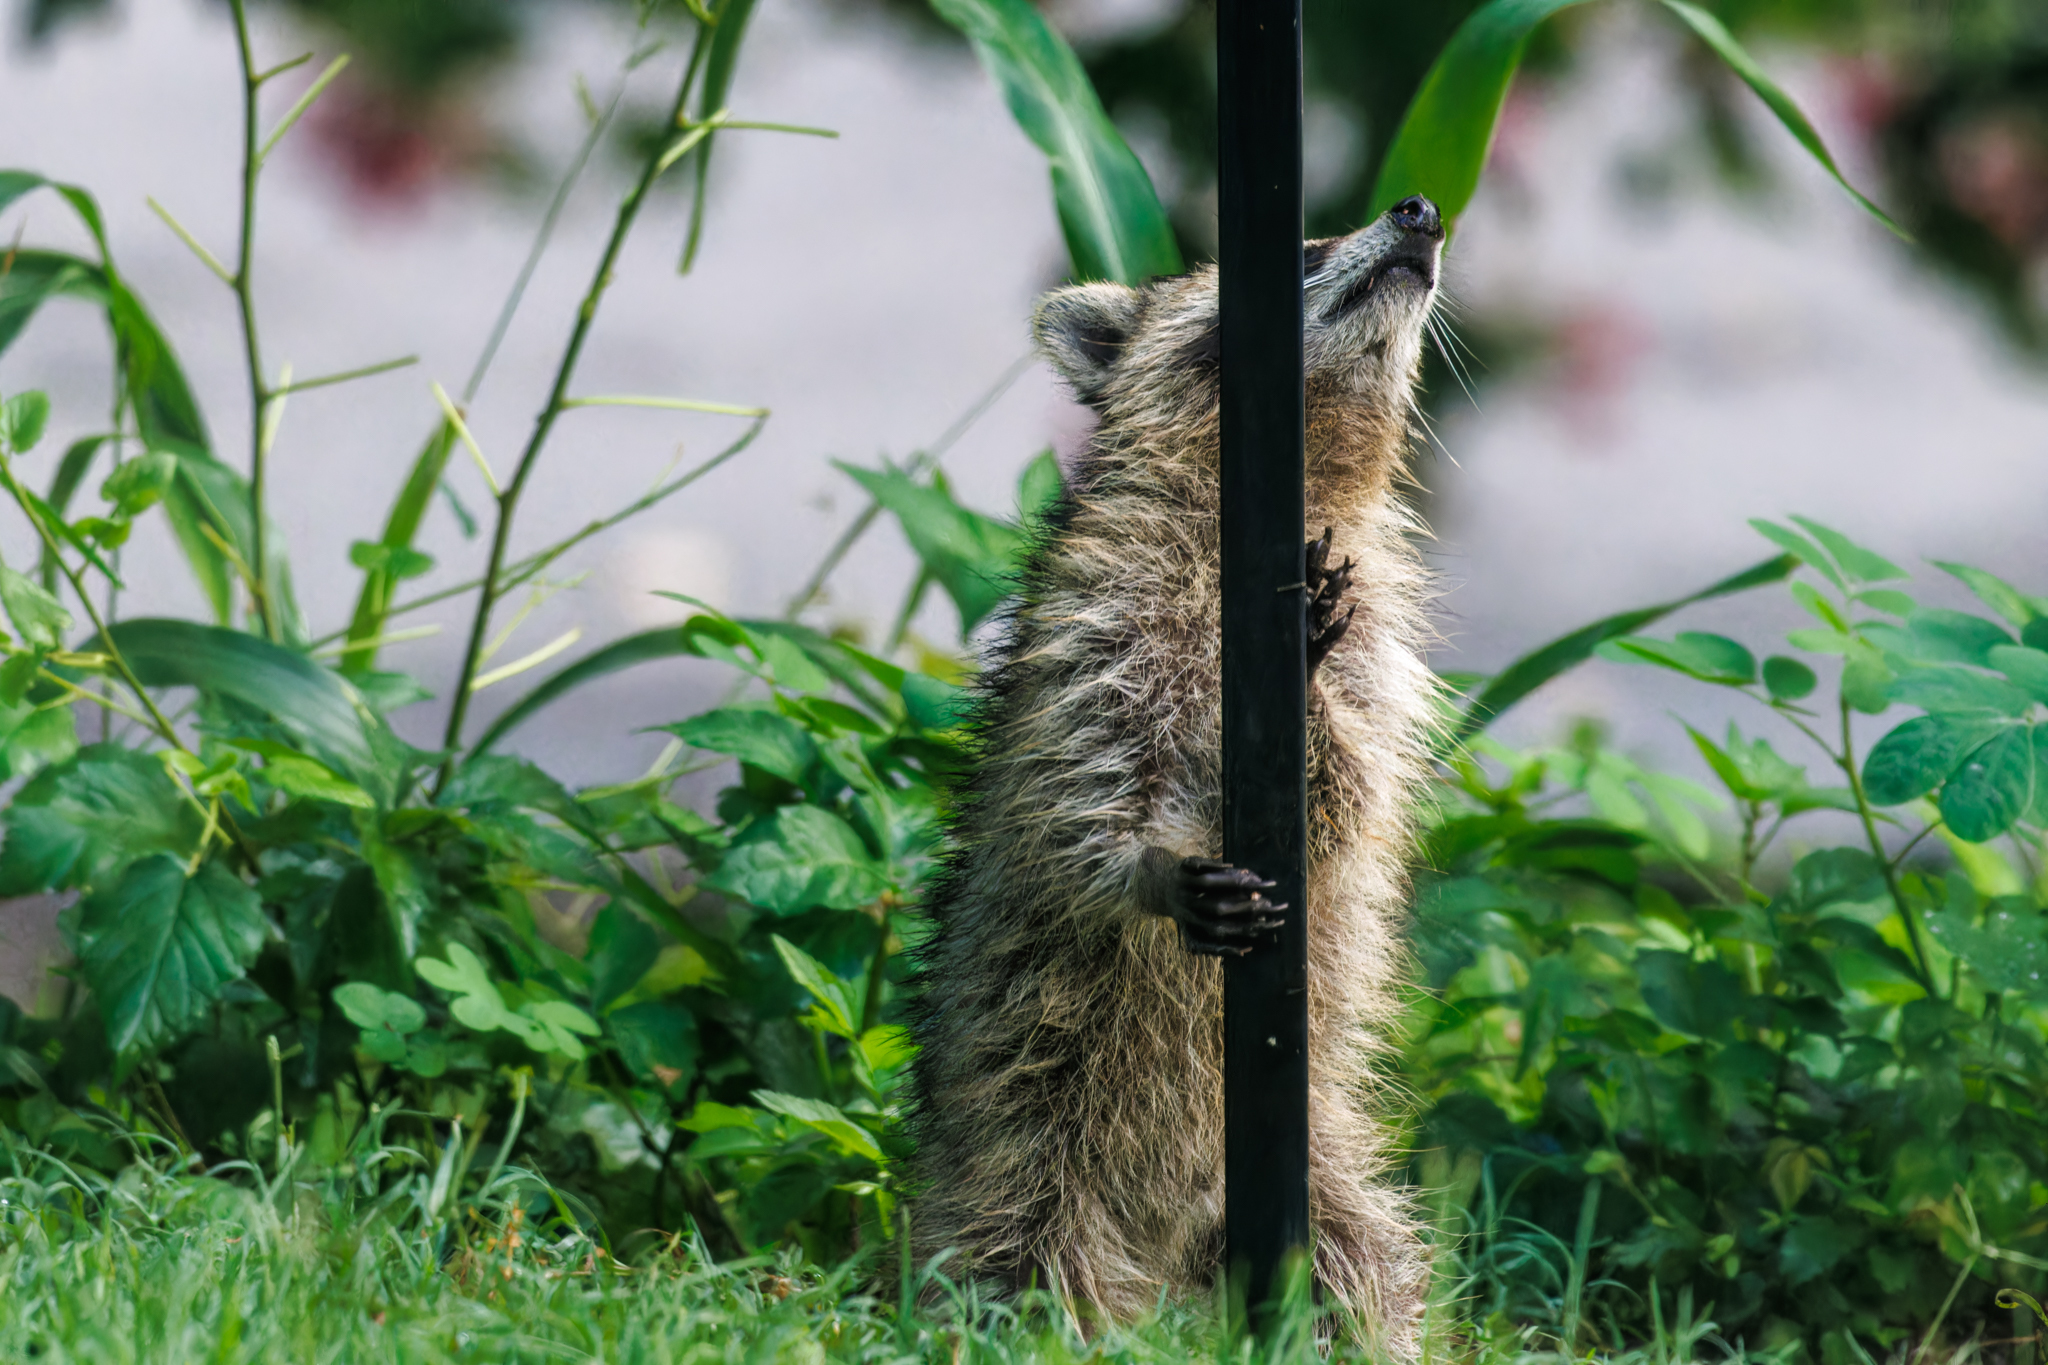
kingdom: Animalia
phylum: Chordata
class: Mammalia
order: Carnivora
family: Procyonidae
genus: Procyon
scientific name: Procyon lotor
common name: Raccoon
